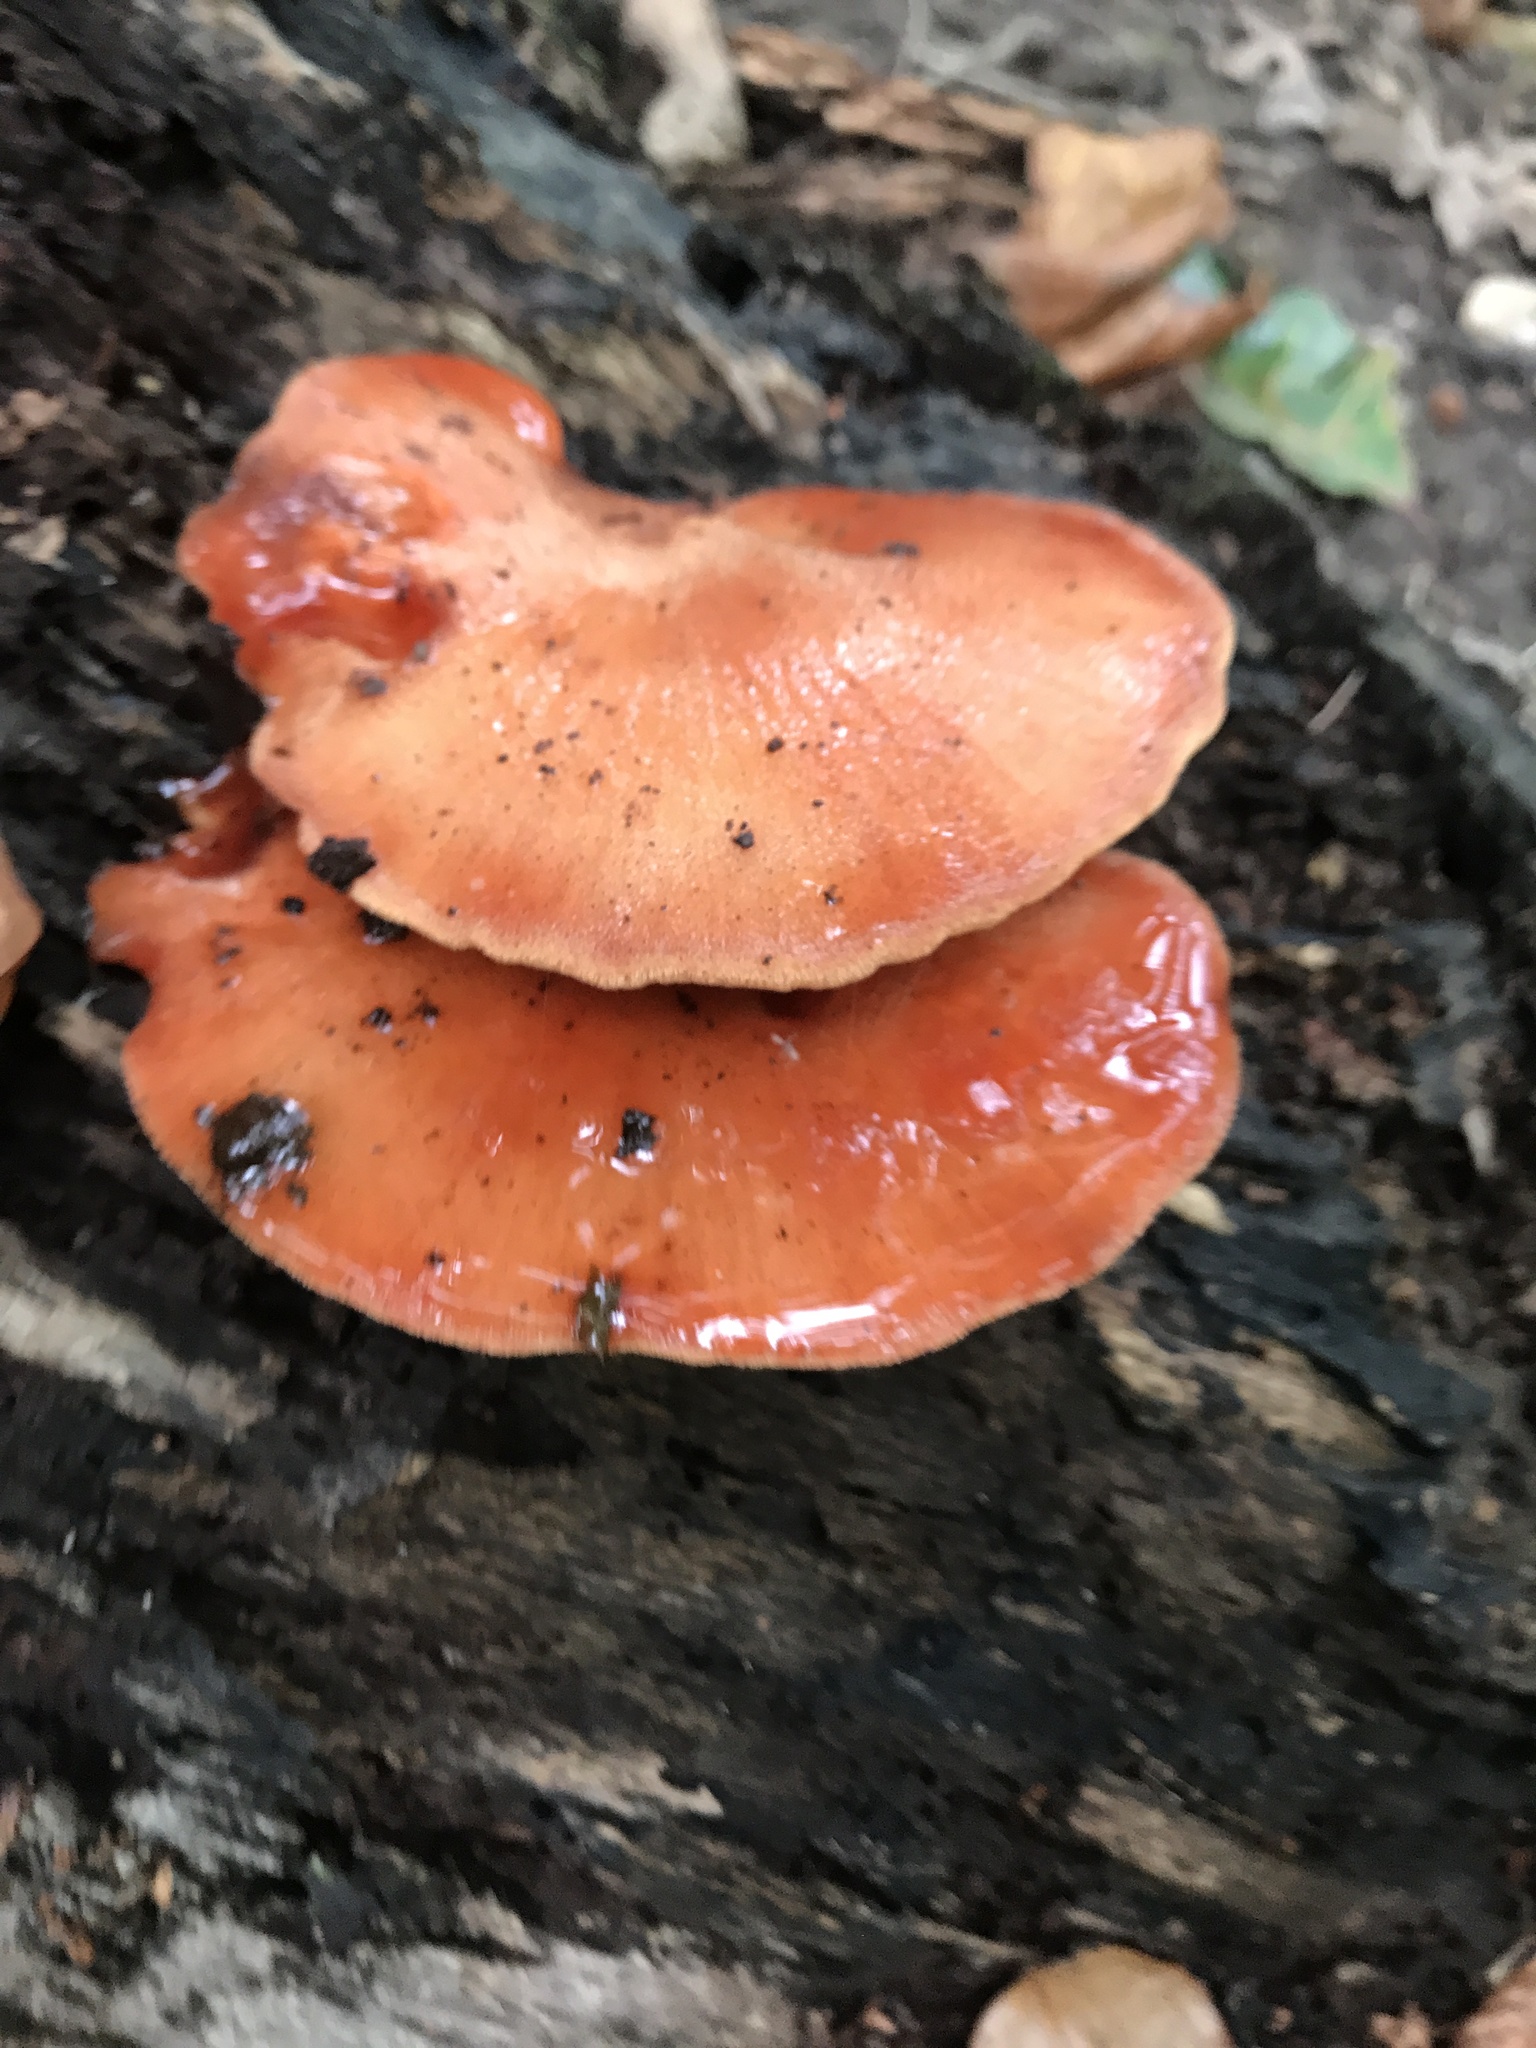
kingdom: Fungi
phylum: Basidiomycota
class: Agaricomycetes
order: Agaricales
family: Fistulinaceae
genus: Fistulina
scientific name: Fistulina hepatica
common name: Beef-steak fungus
